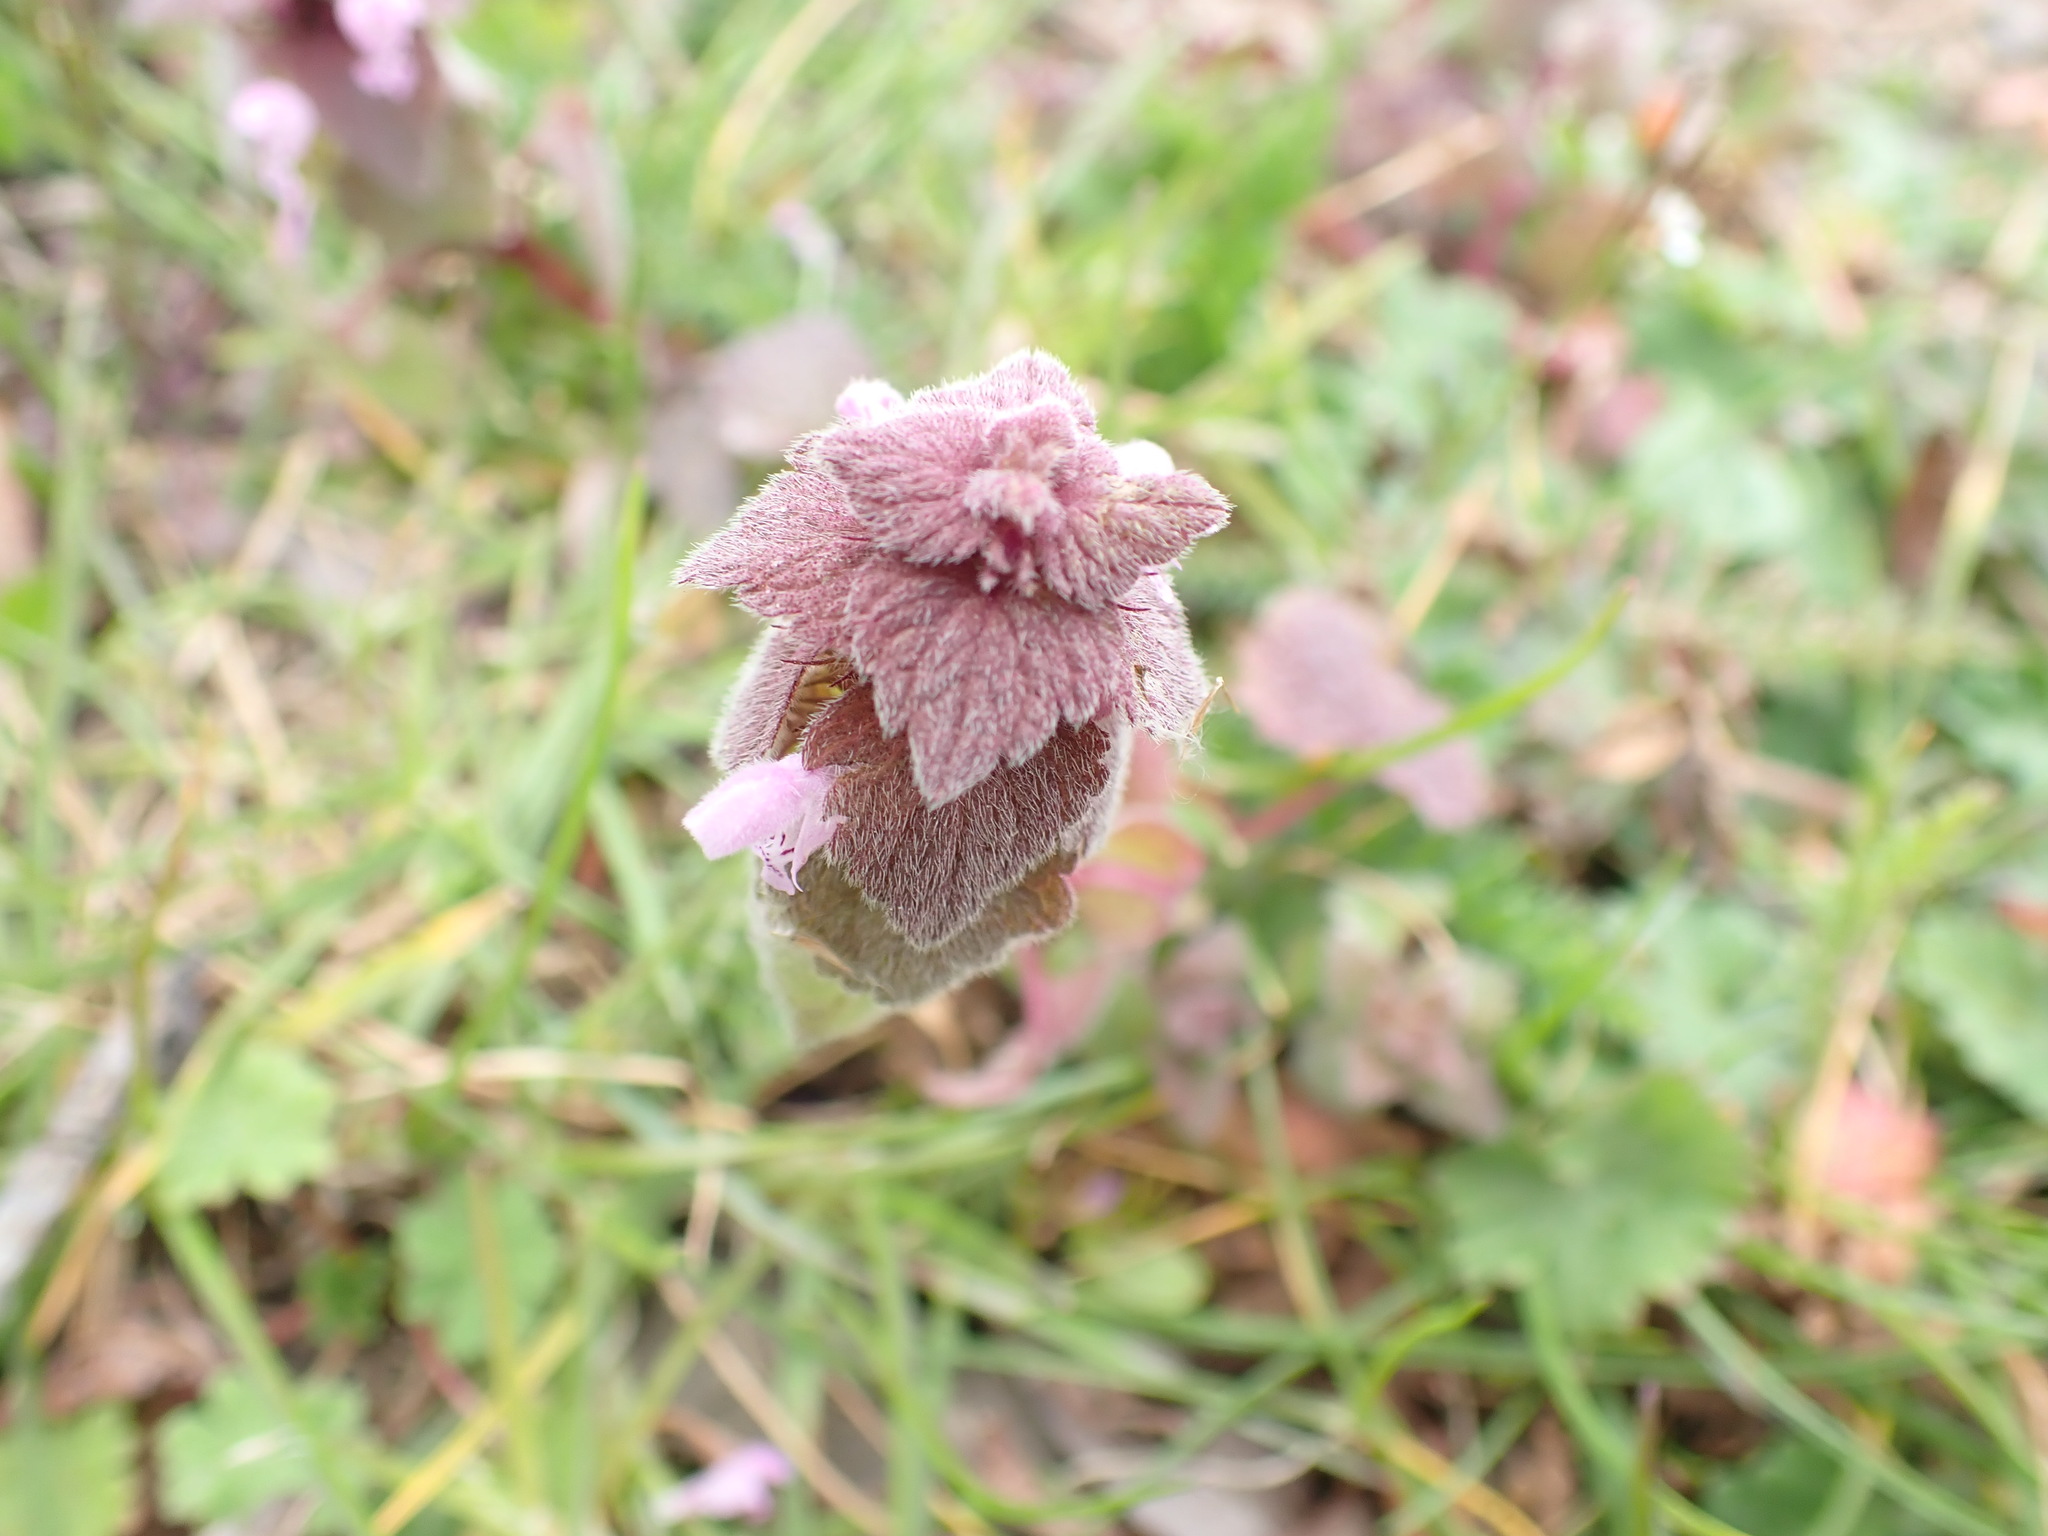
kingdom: Plantae
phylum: Tracheophyta
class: Magnoliopsida
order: Lamiales
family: Lamiaceae
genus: Lamium
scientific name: Lamium purpureum
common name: Red dead-nettle
